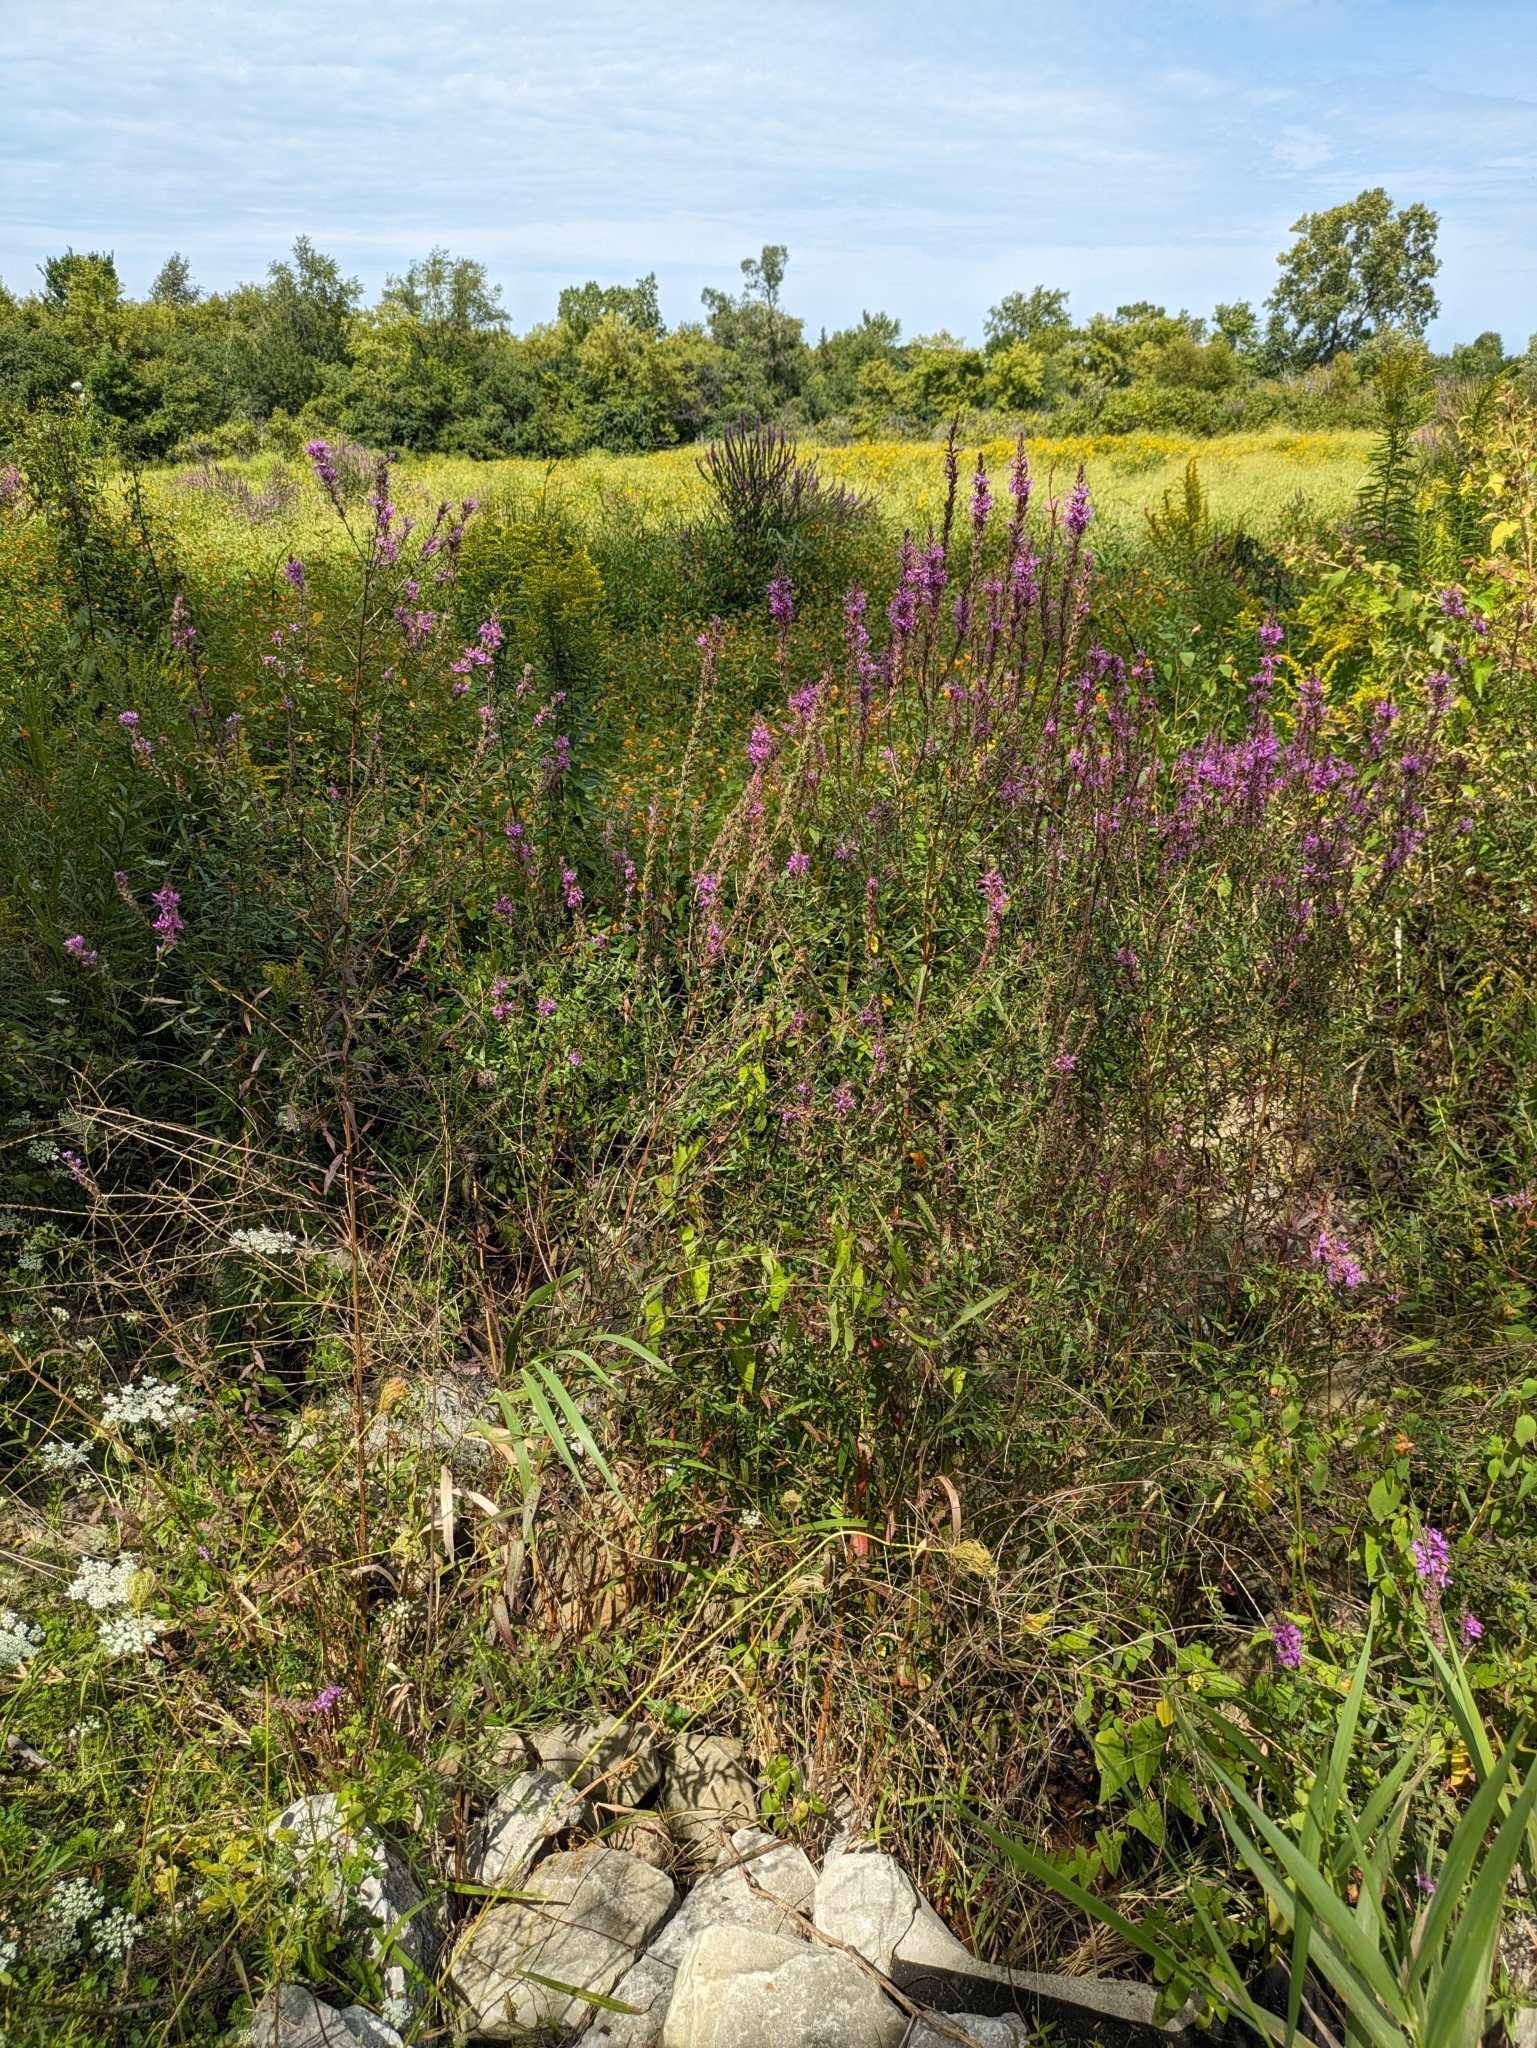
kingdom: Plantae
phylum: Tracheophyta
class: Magnoliopsida
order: Myrtales
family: Lythraceae
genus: Lythrum
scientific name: Lythrum salicaria
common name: Purple loosestrife
